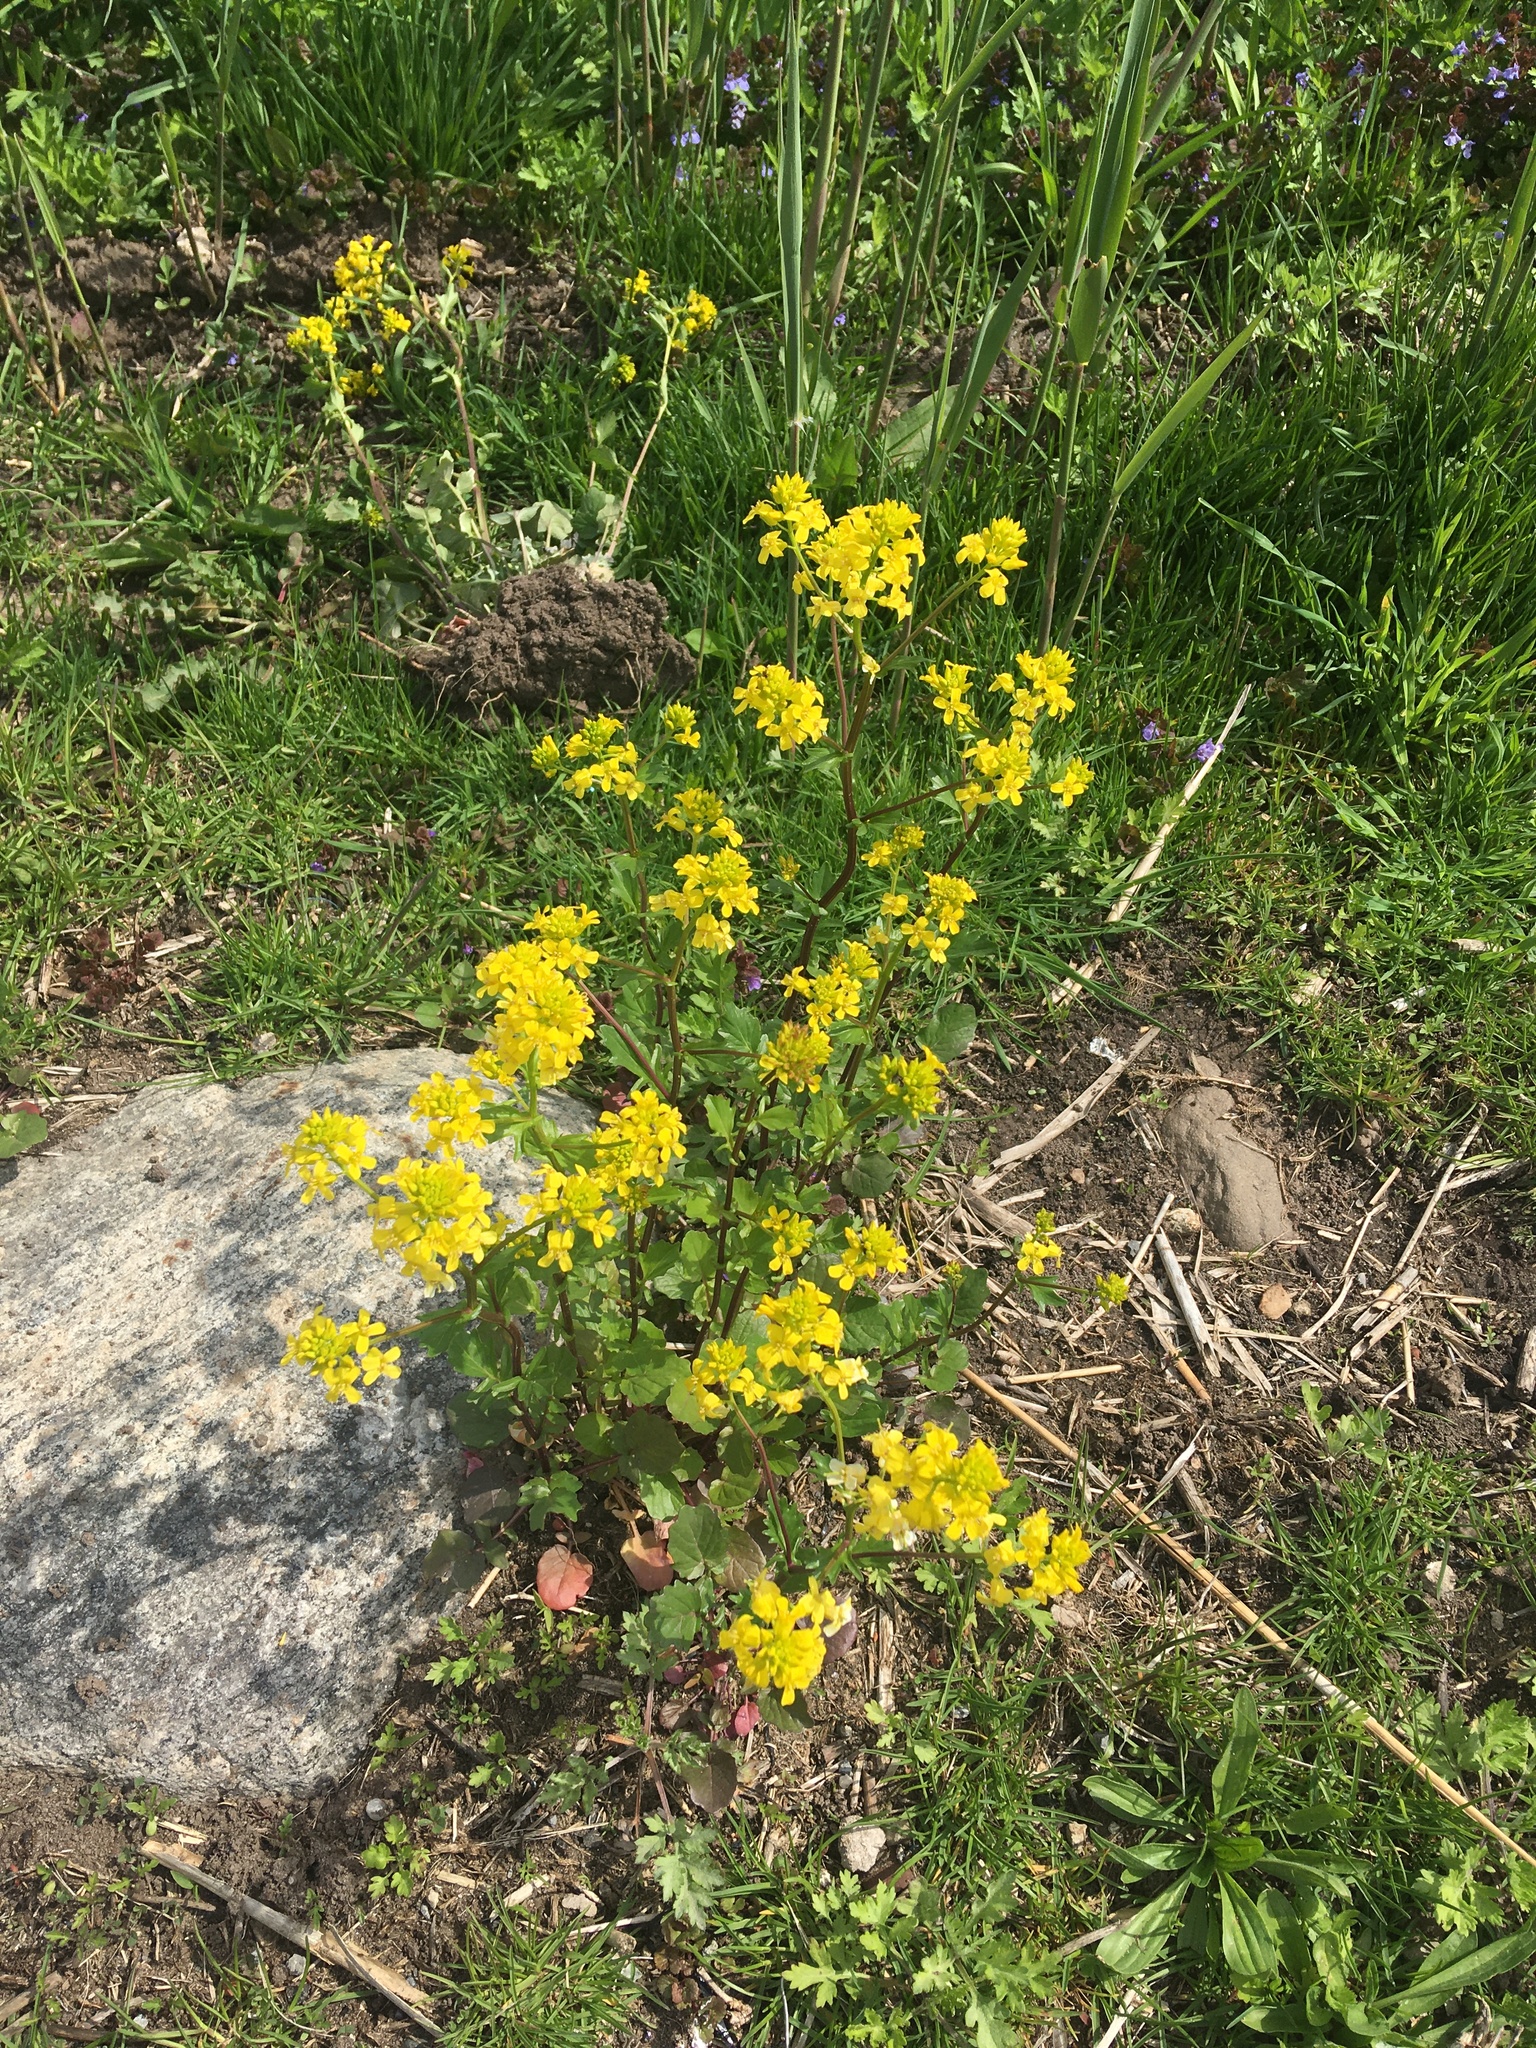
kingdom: Plantae
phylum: Tracheophyta
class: Magnoliopsida
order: Brassicales
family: Brassicaceae
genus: Barbarea
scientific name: Barbarea vulgaris
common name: Cressy-greens
